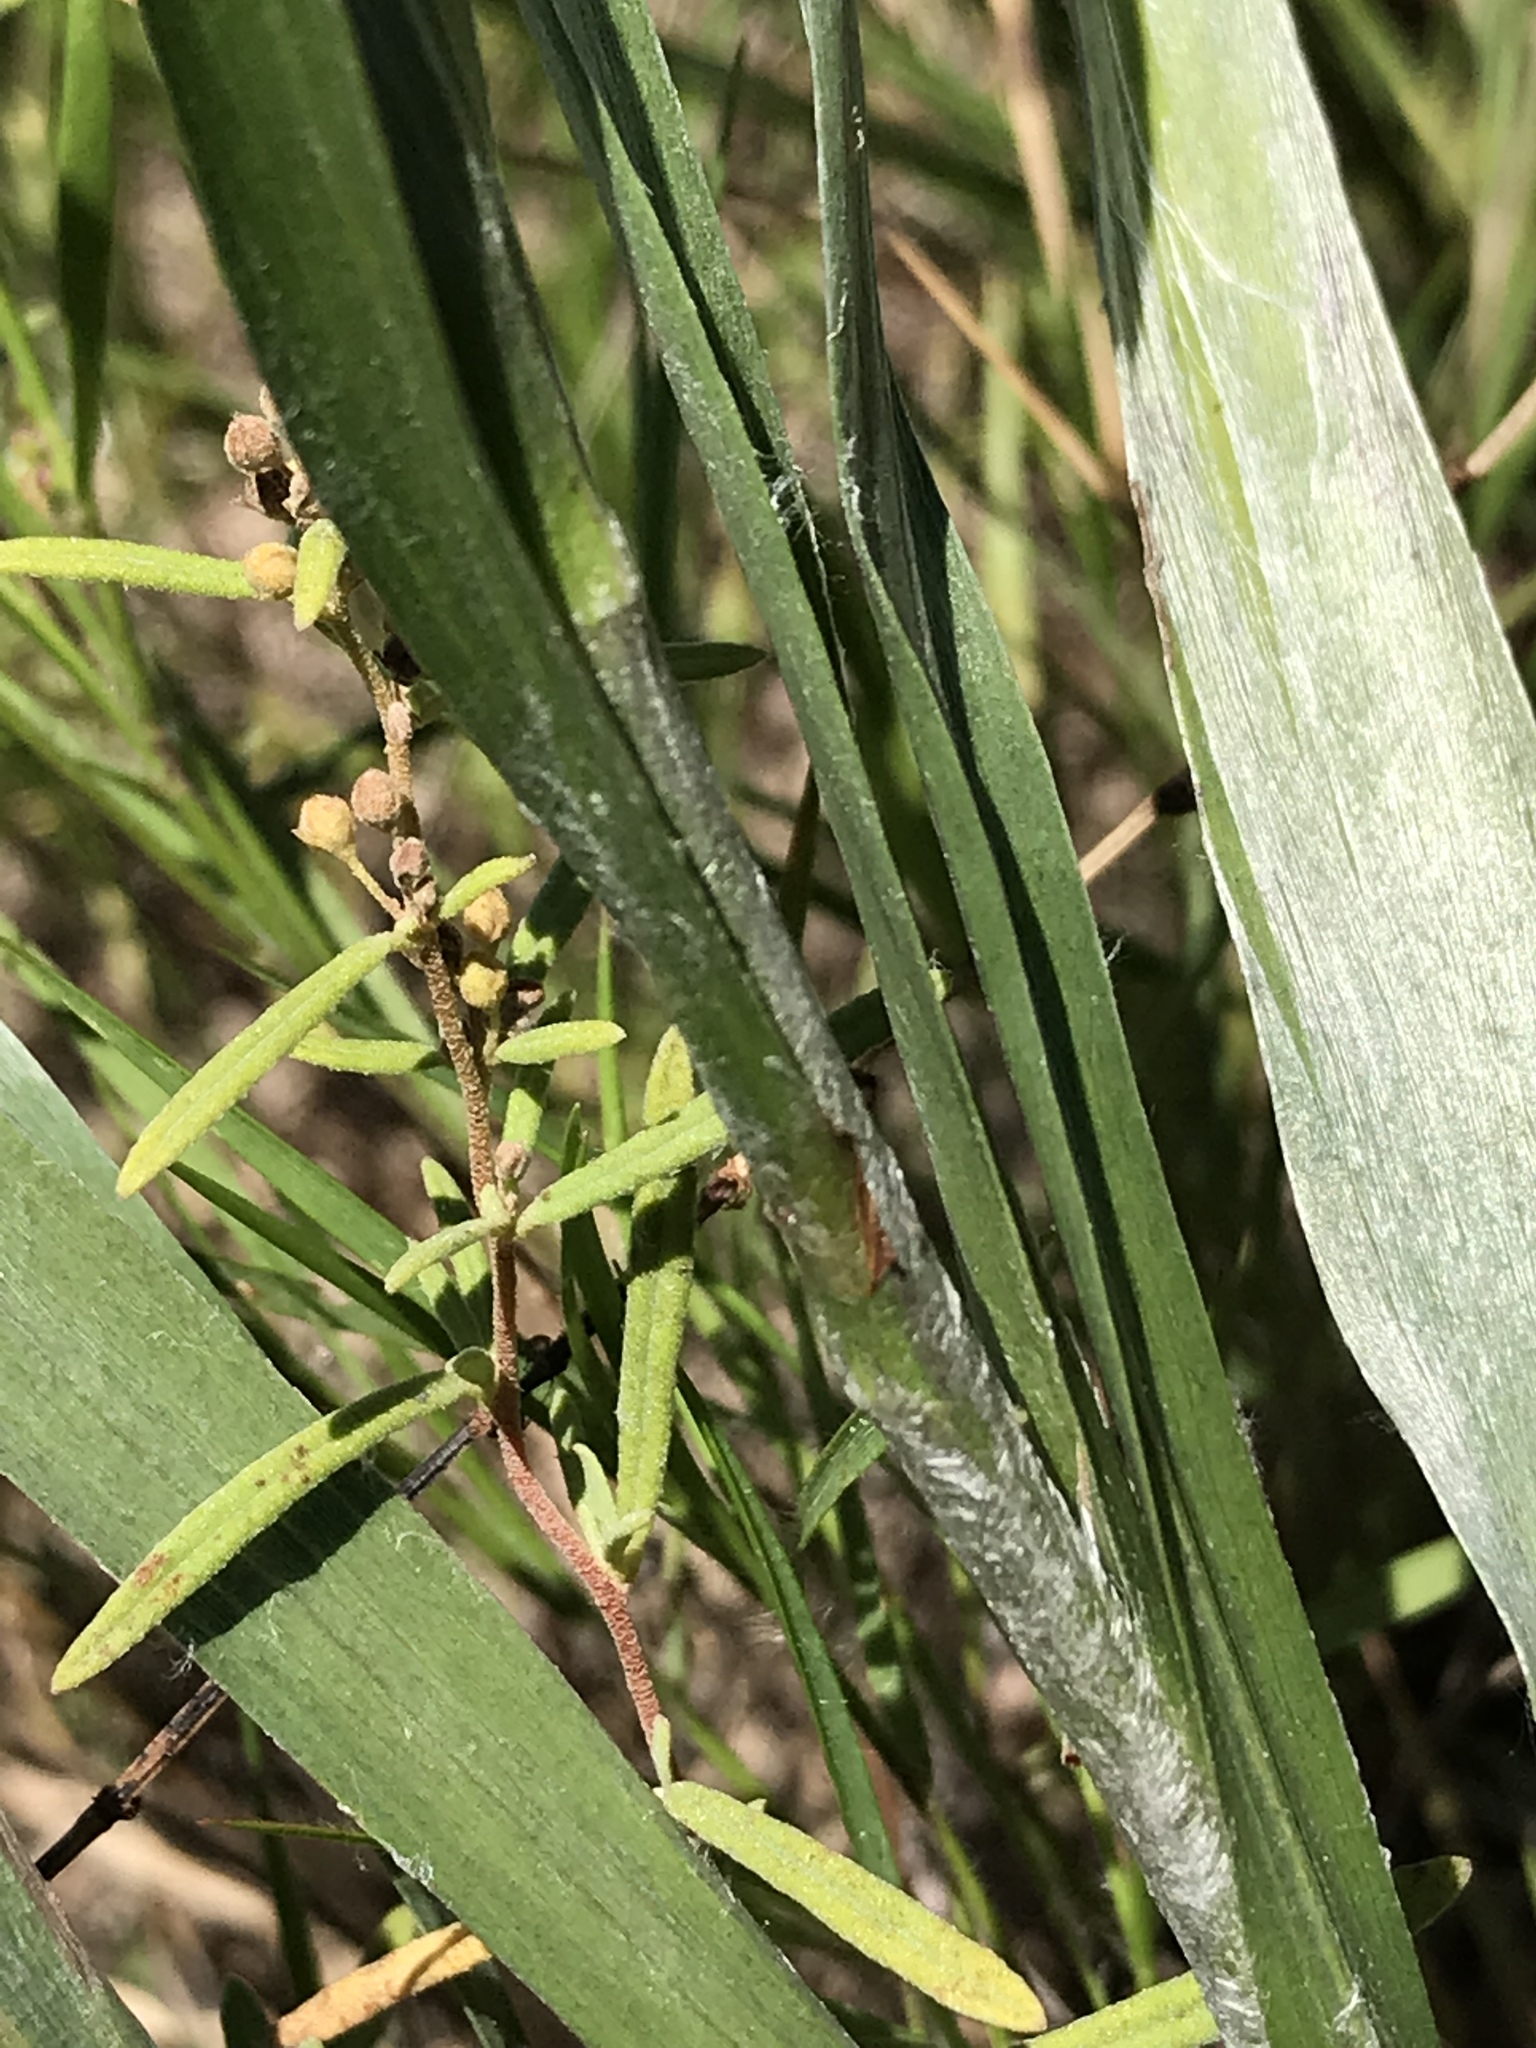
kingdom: Plantae
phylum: Tracheophyta
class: Magnoliopsida
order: Asterales
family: Asteraceae
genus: Pityopsis
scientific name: Pityopsis latifolia
